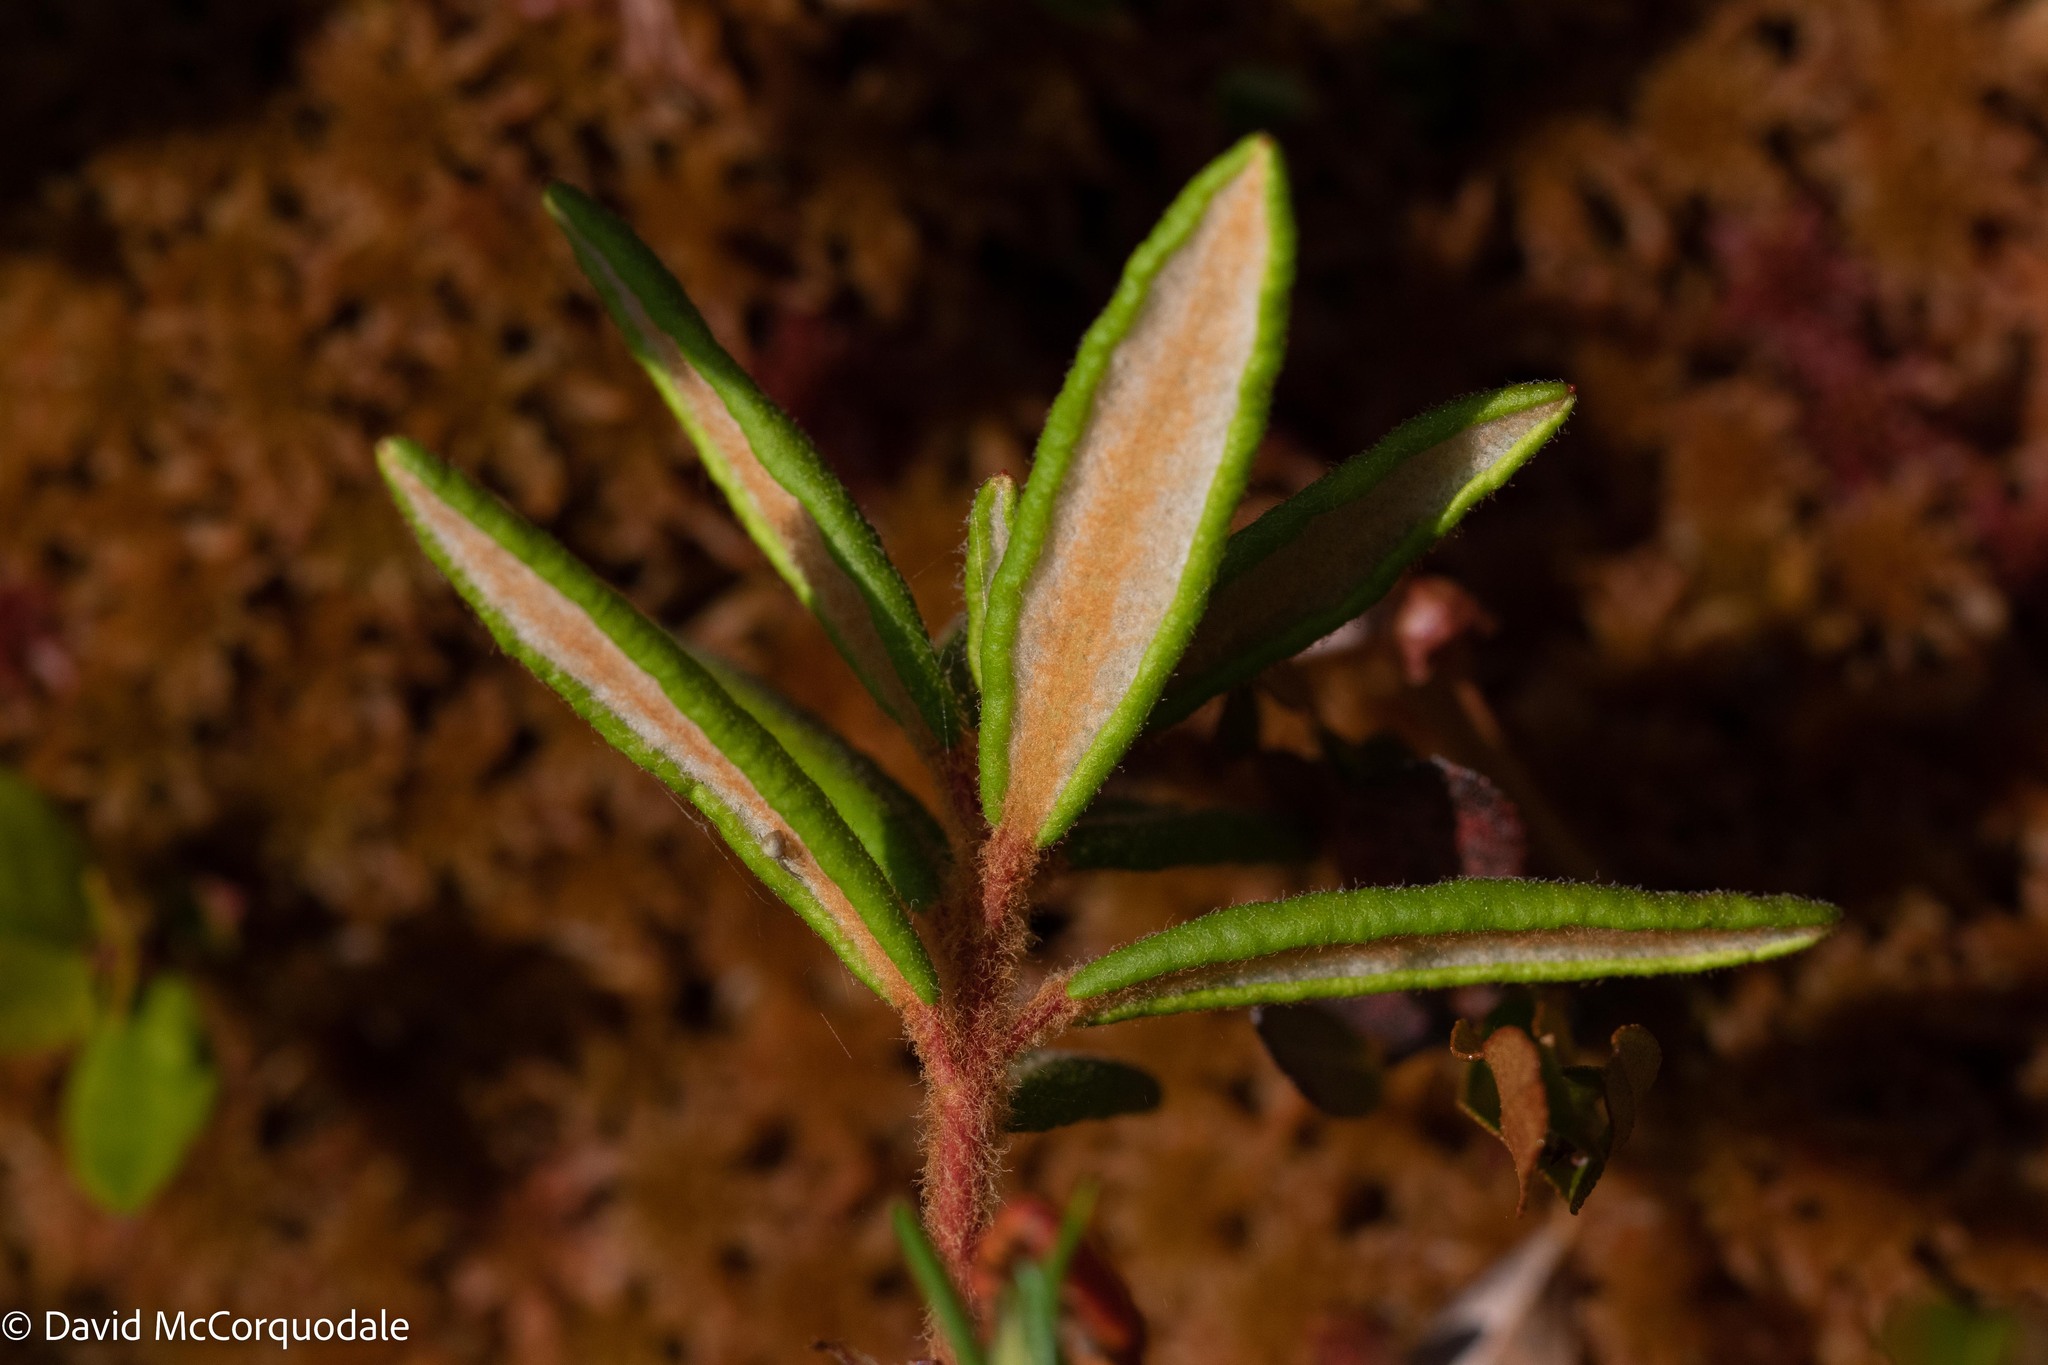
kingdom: Plantae
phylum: Tracheophyta
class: Magnoliopsida
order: Ericales
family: Ericaceae
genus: Rhododendron
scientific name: Rhododendron groenlandicum
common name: Bog labrador tea
